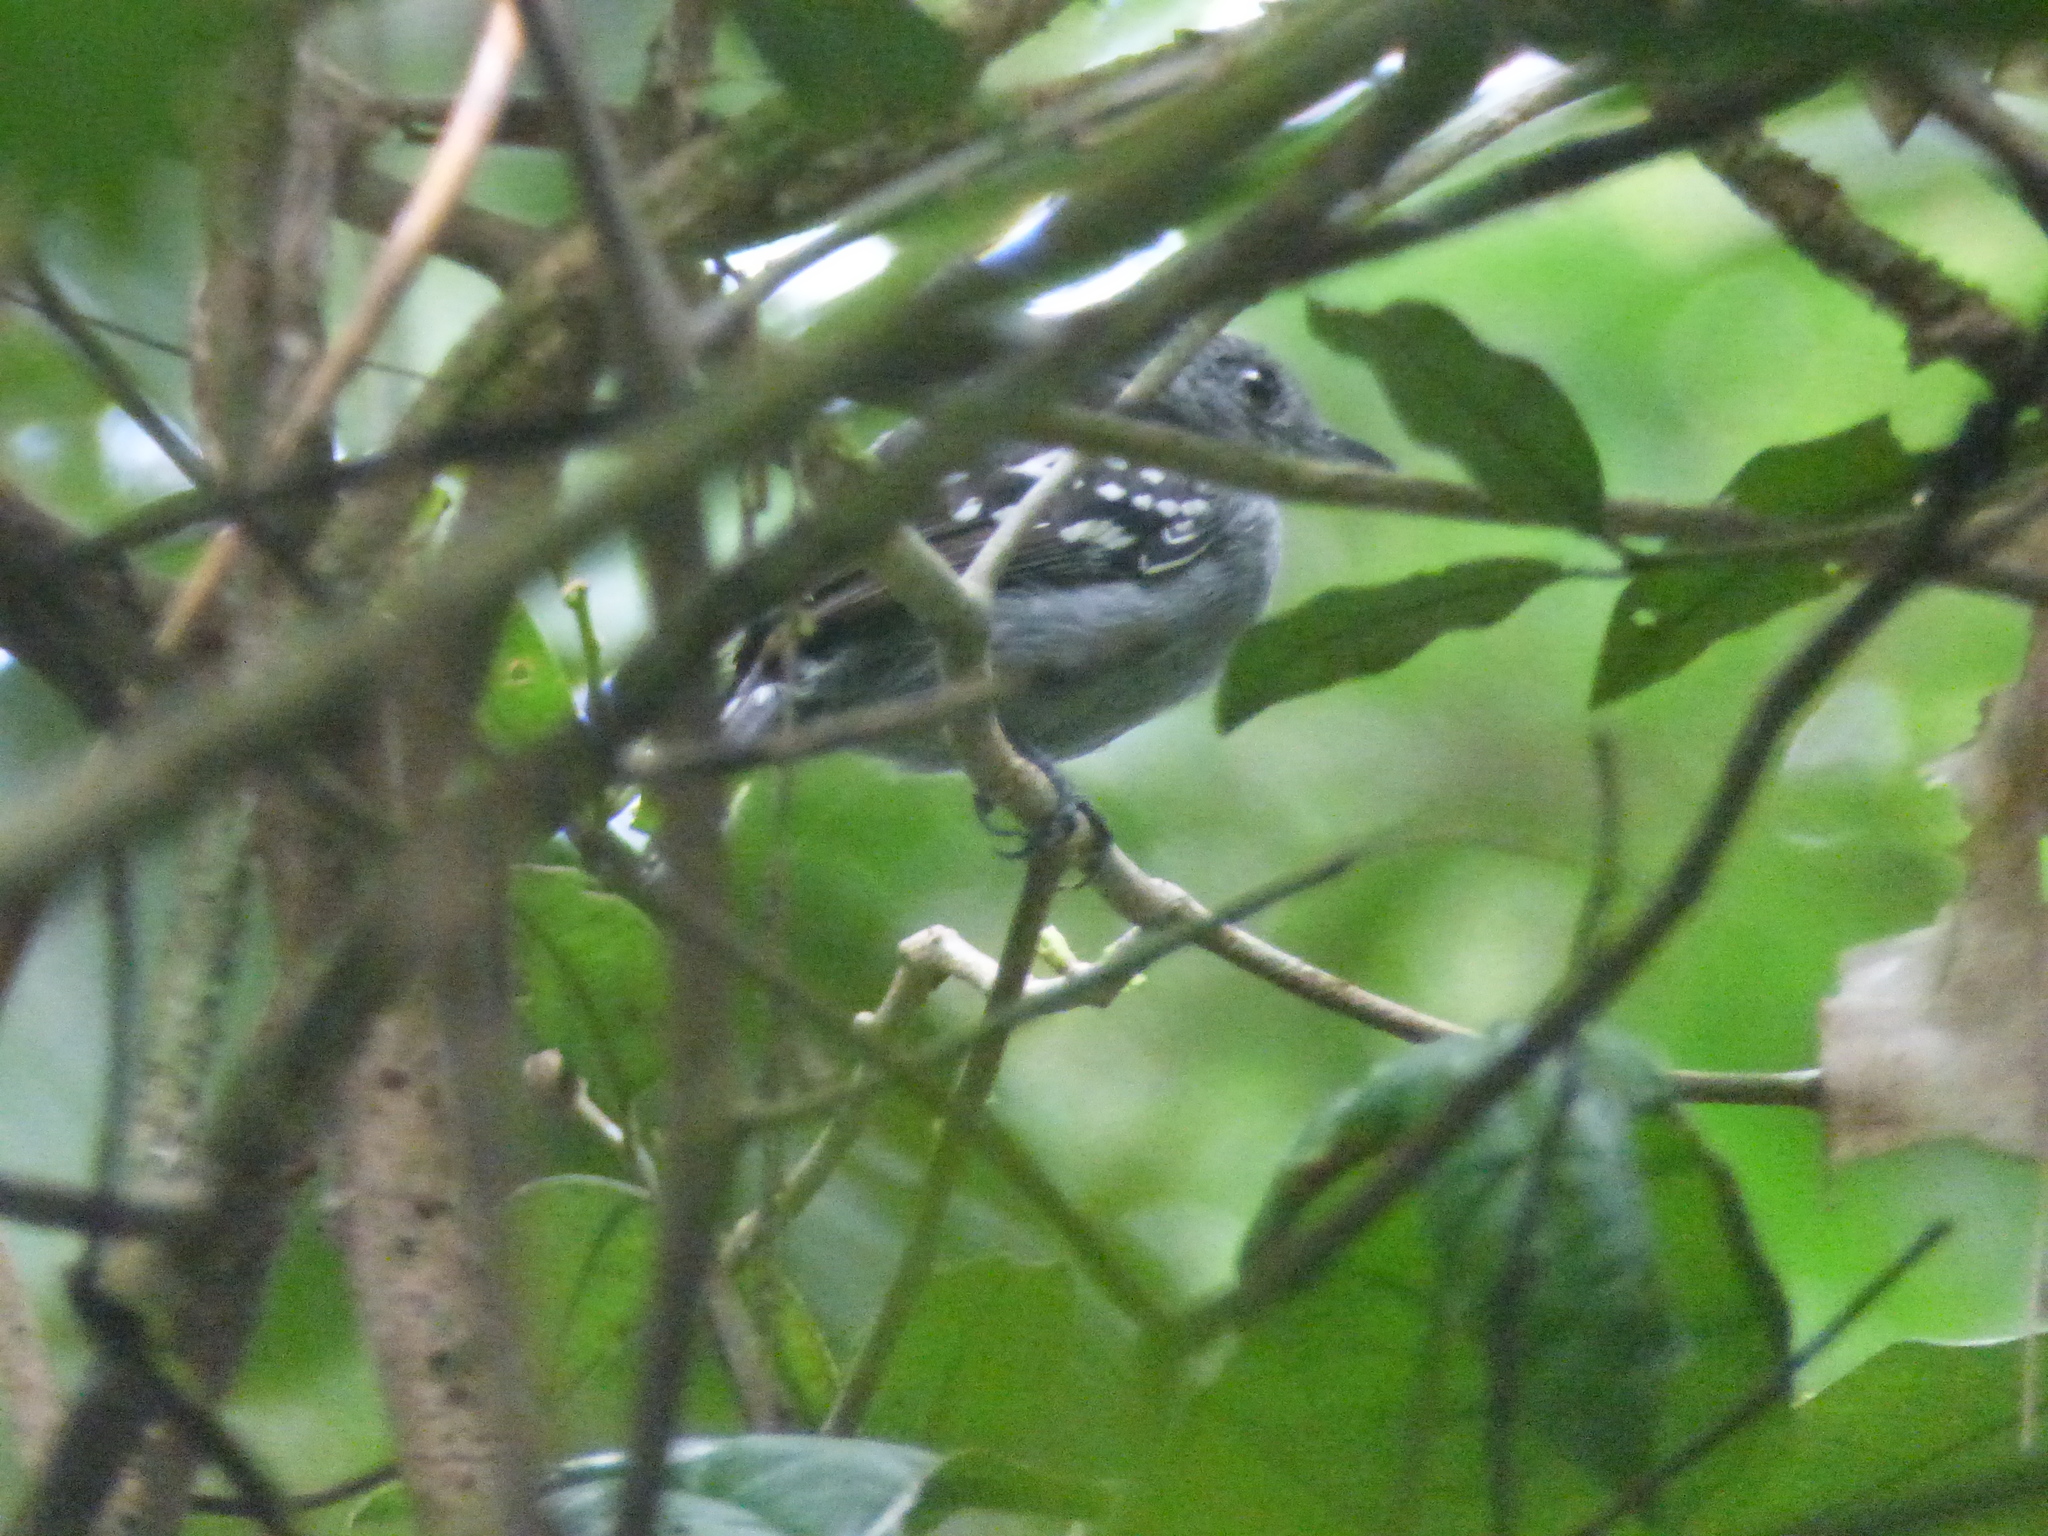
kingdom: Animalia
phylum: Chordata
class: Aves
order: Passeriformes
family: Thamnophilidae
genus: Thamnophilus
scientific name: Thamnophilus atrinucha
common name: Black-crowned antshrike
